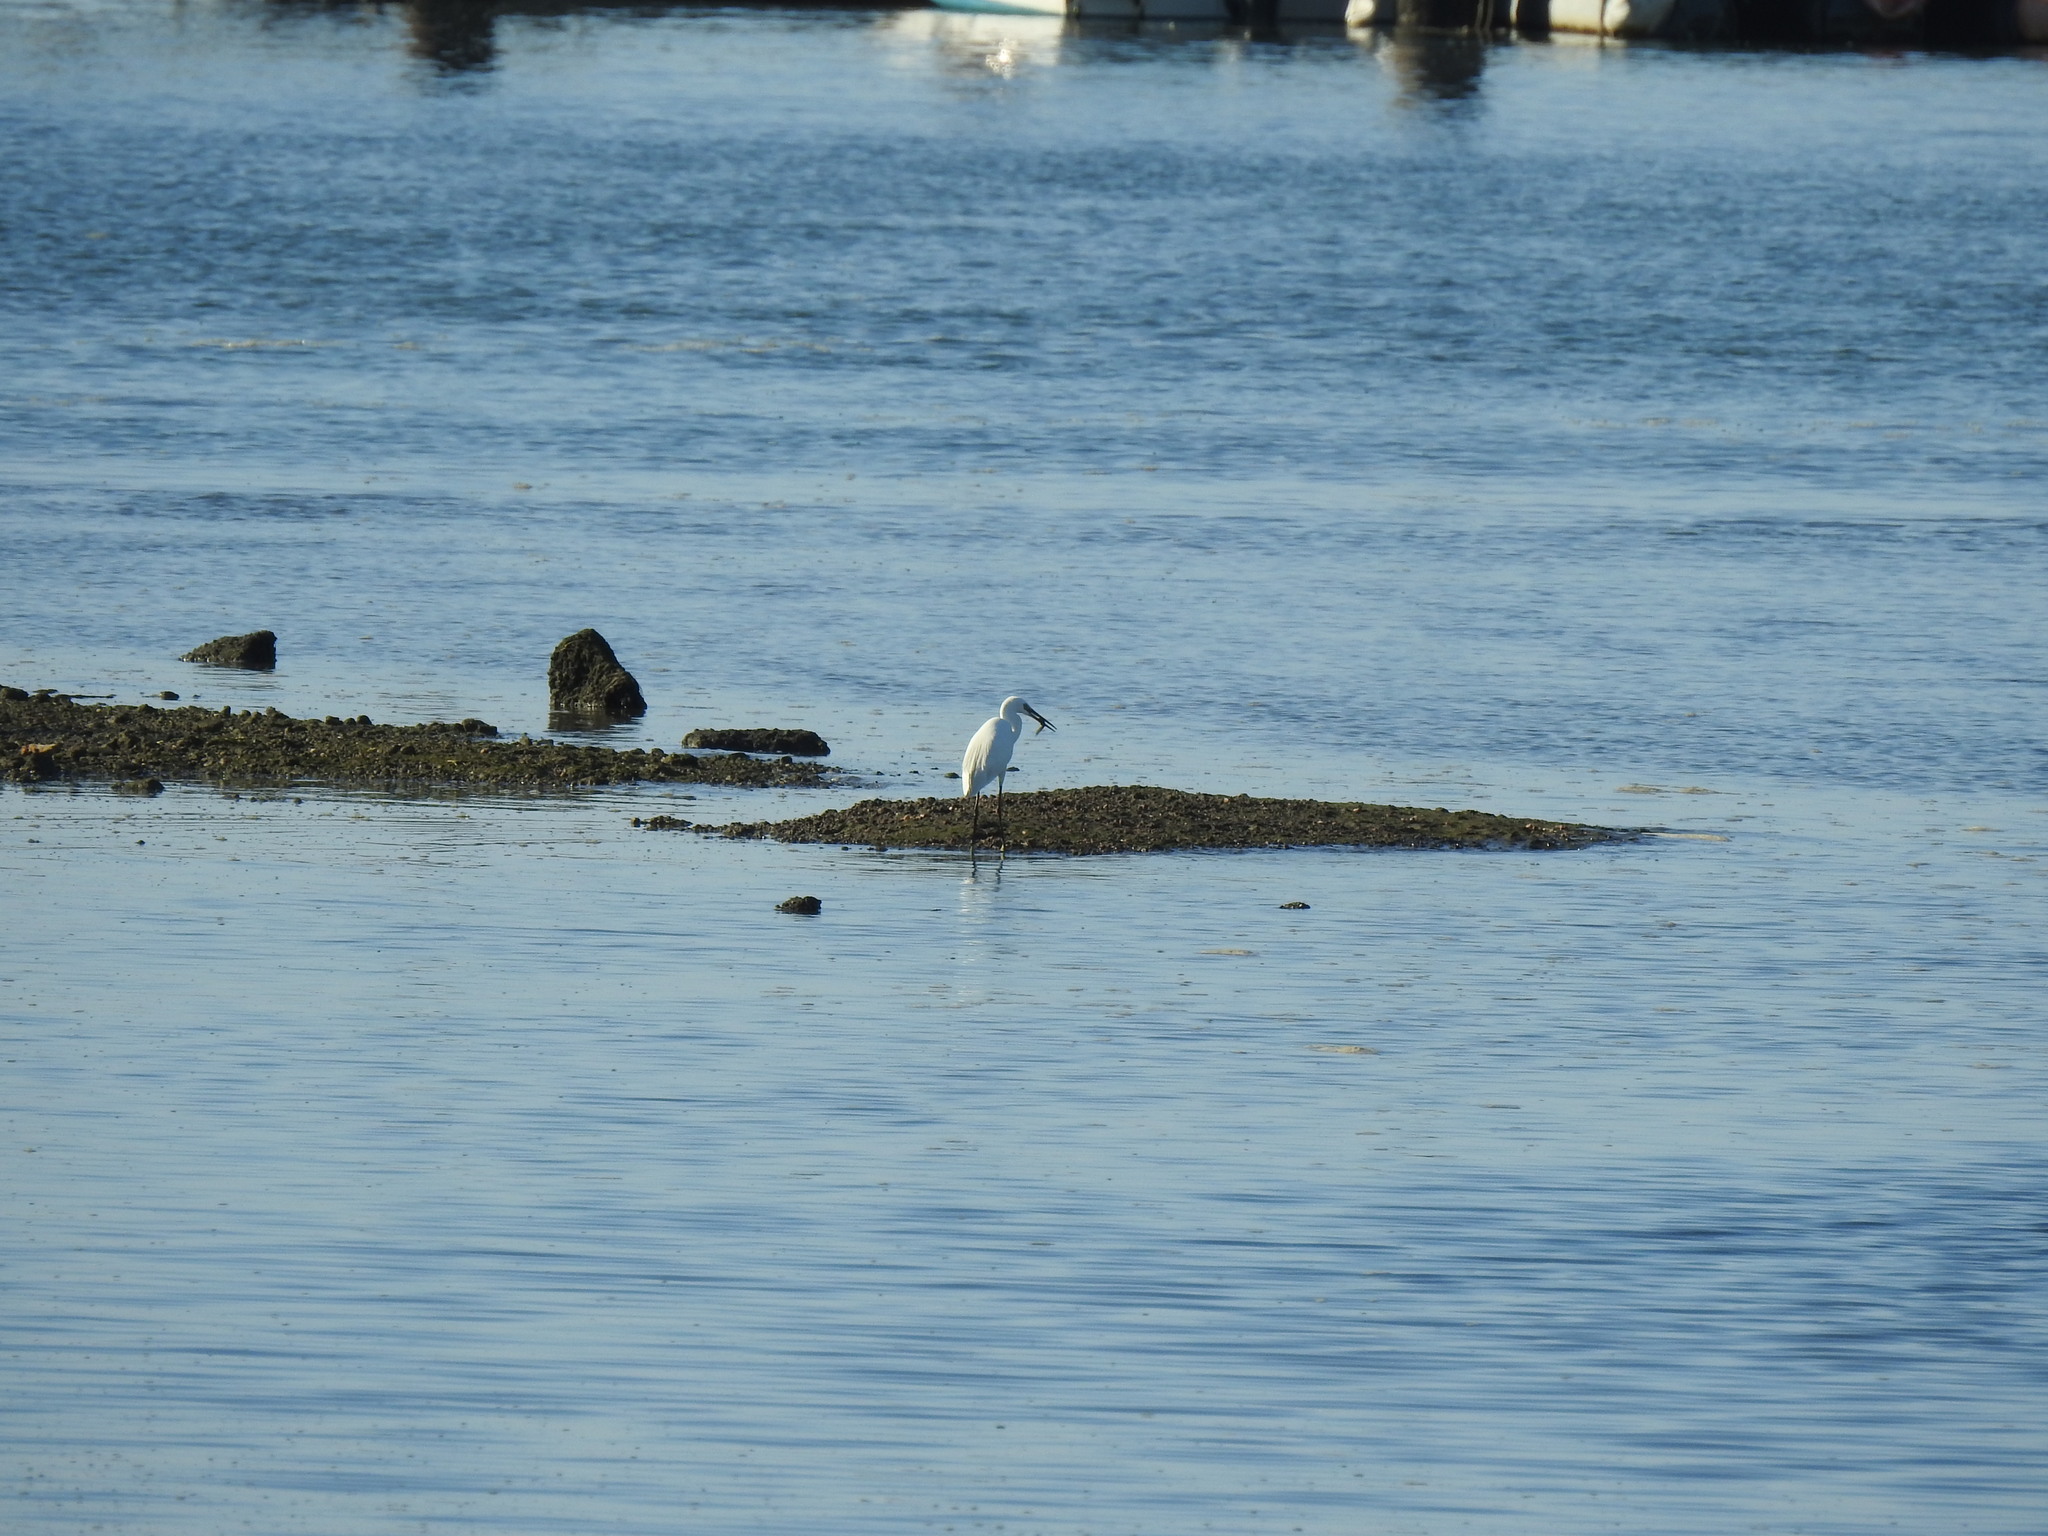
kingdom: Animalia
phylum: Chordata
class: Aves
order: Pelecaniformes
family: Ardeidae
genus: Egretta
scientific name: Egretta garzetta
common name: Little egret
